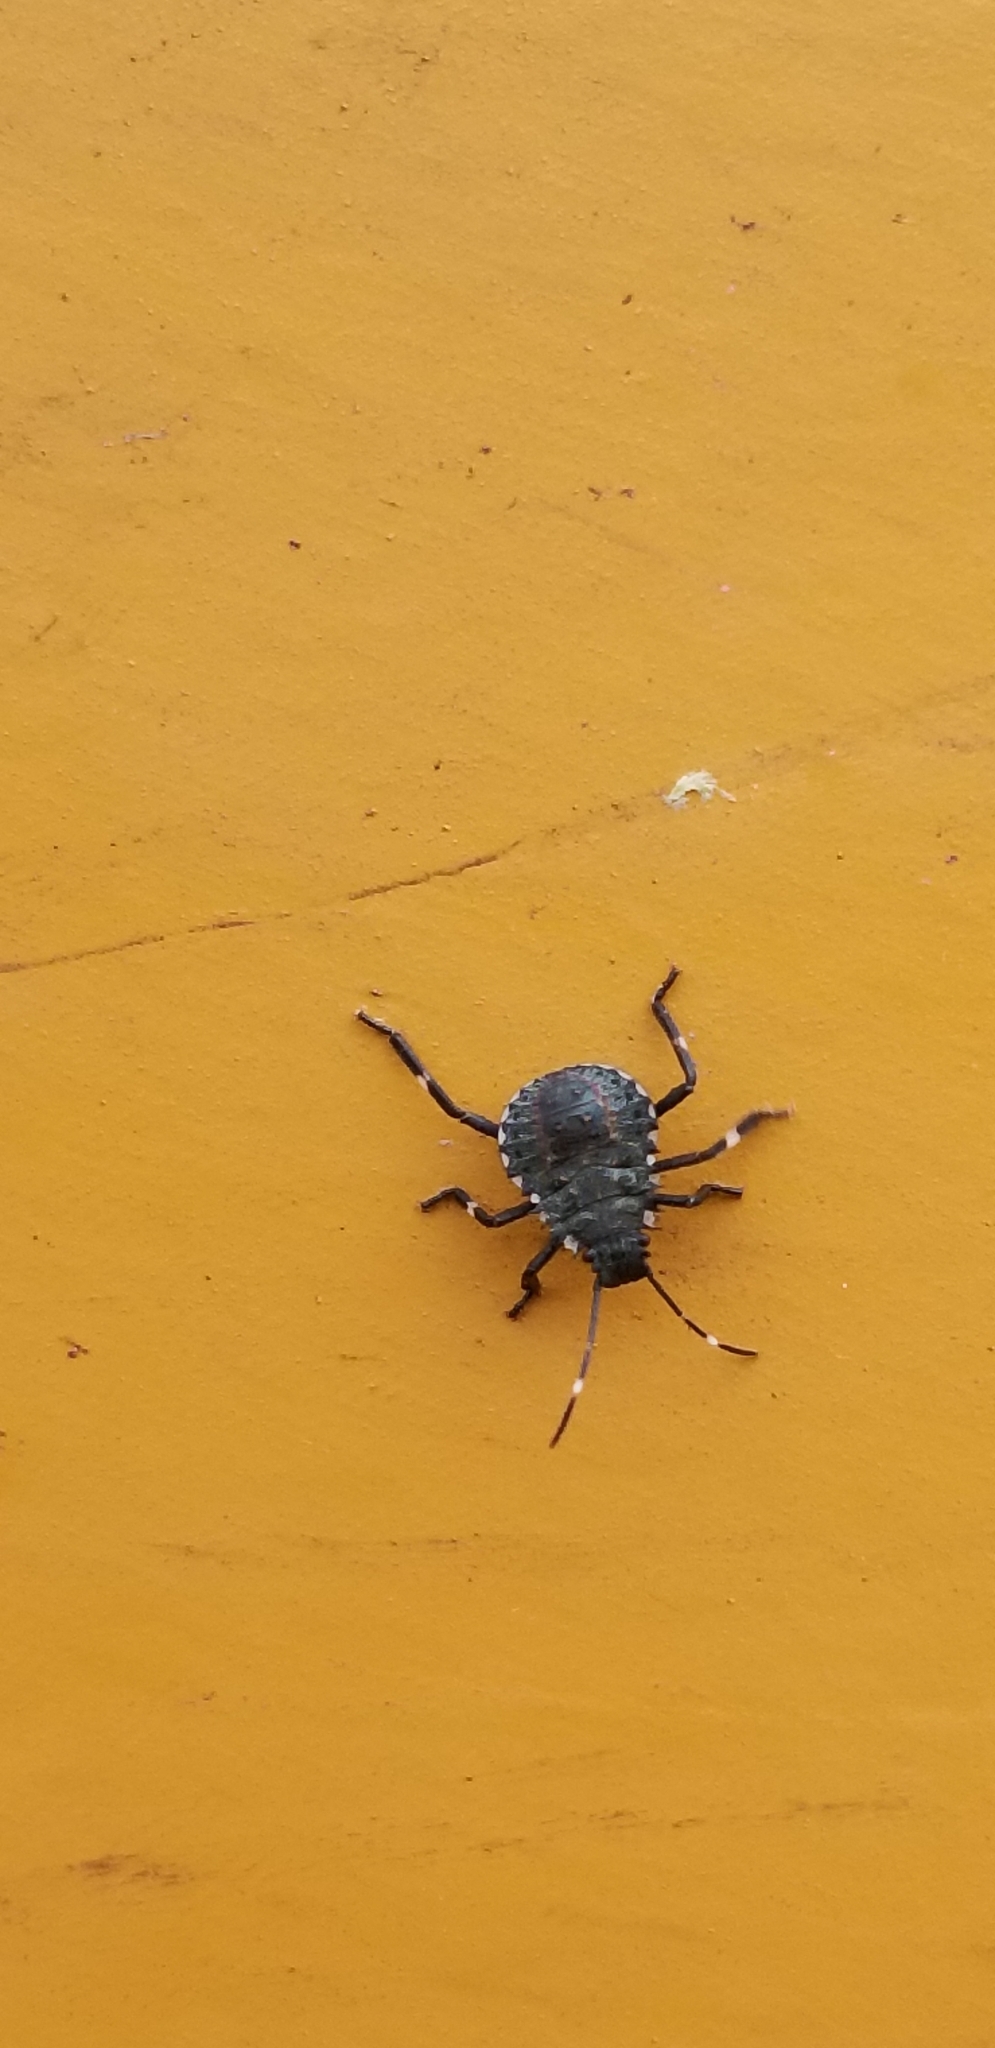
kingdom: Animalia
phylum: Arthropoda
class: Insecta
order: Hemiptera
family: Pentatomidae
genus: Halyomorpha
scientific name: Halyomorpha halys
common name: Brown marmorated stink bug
